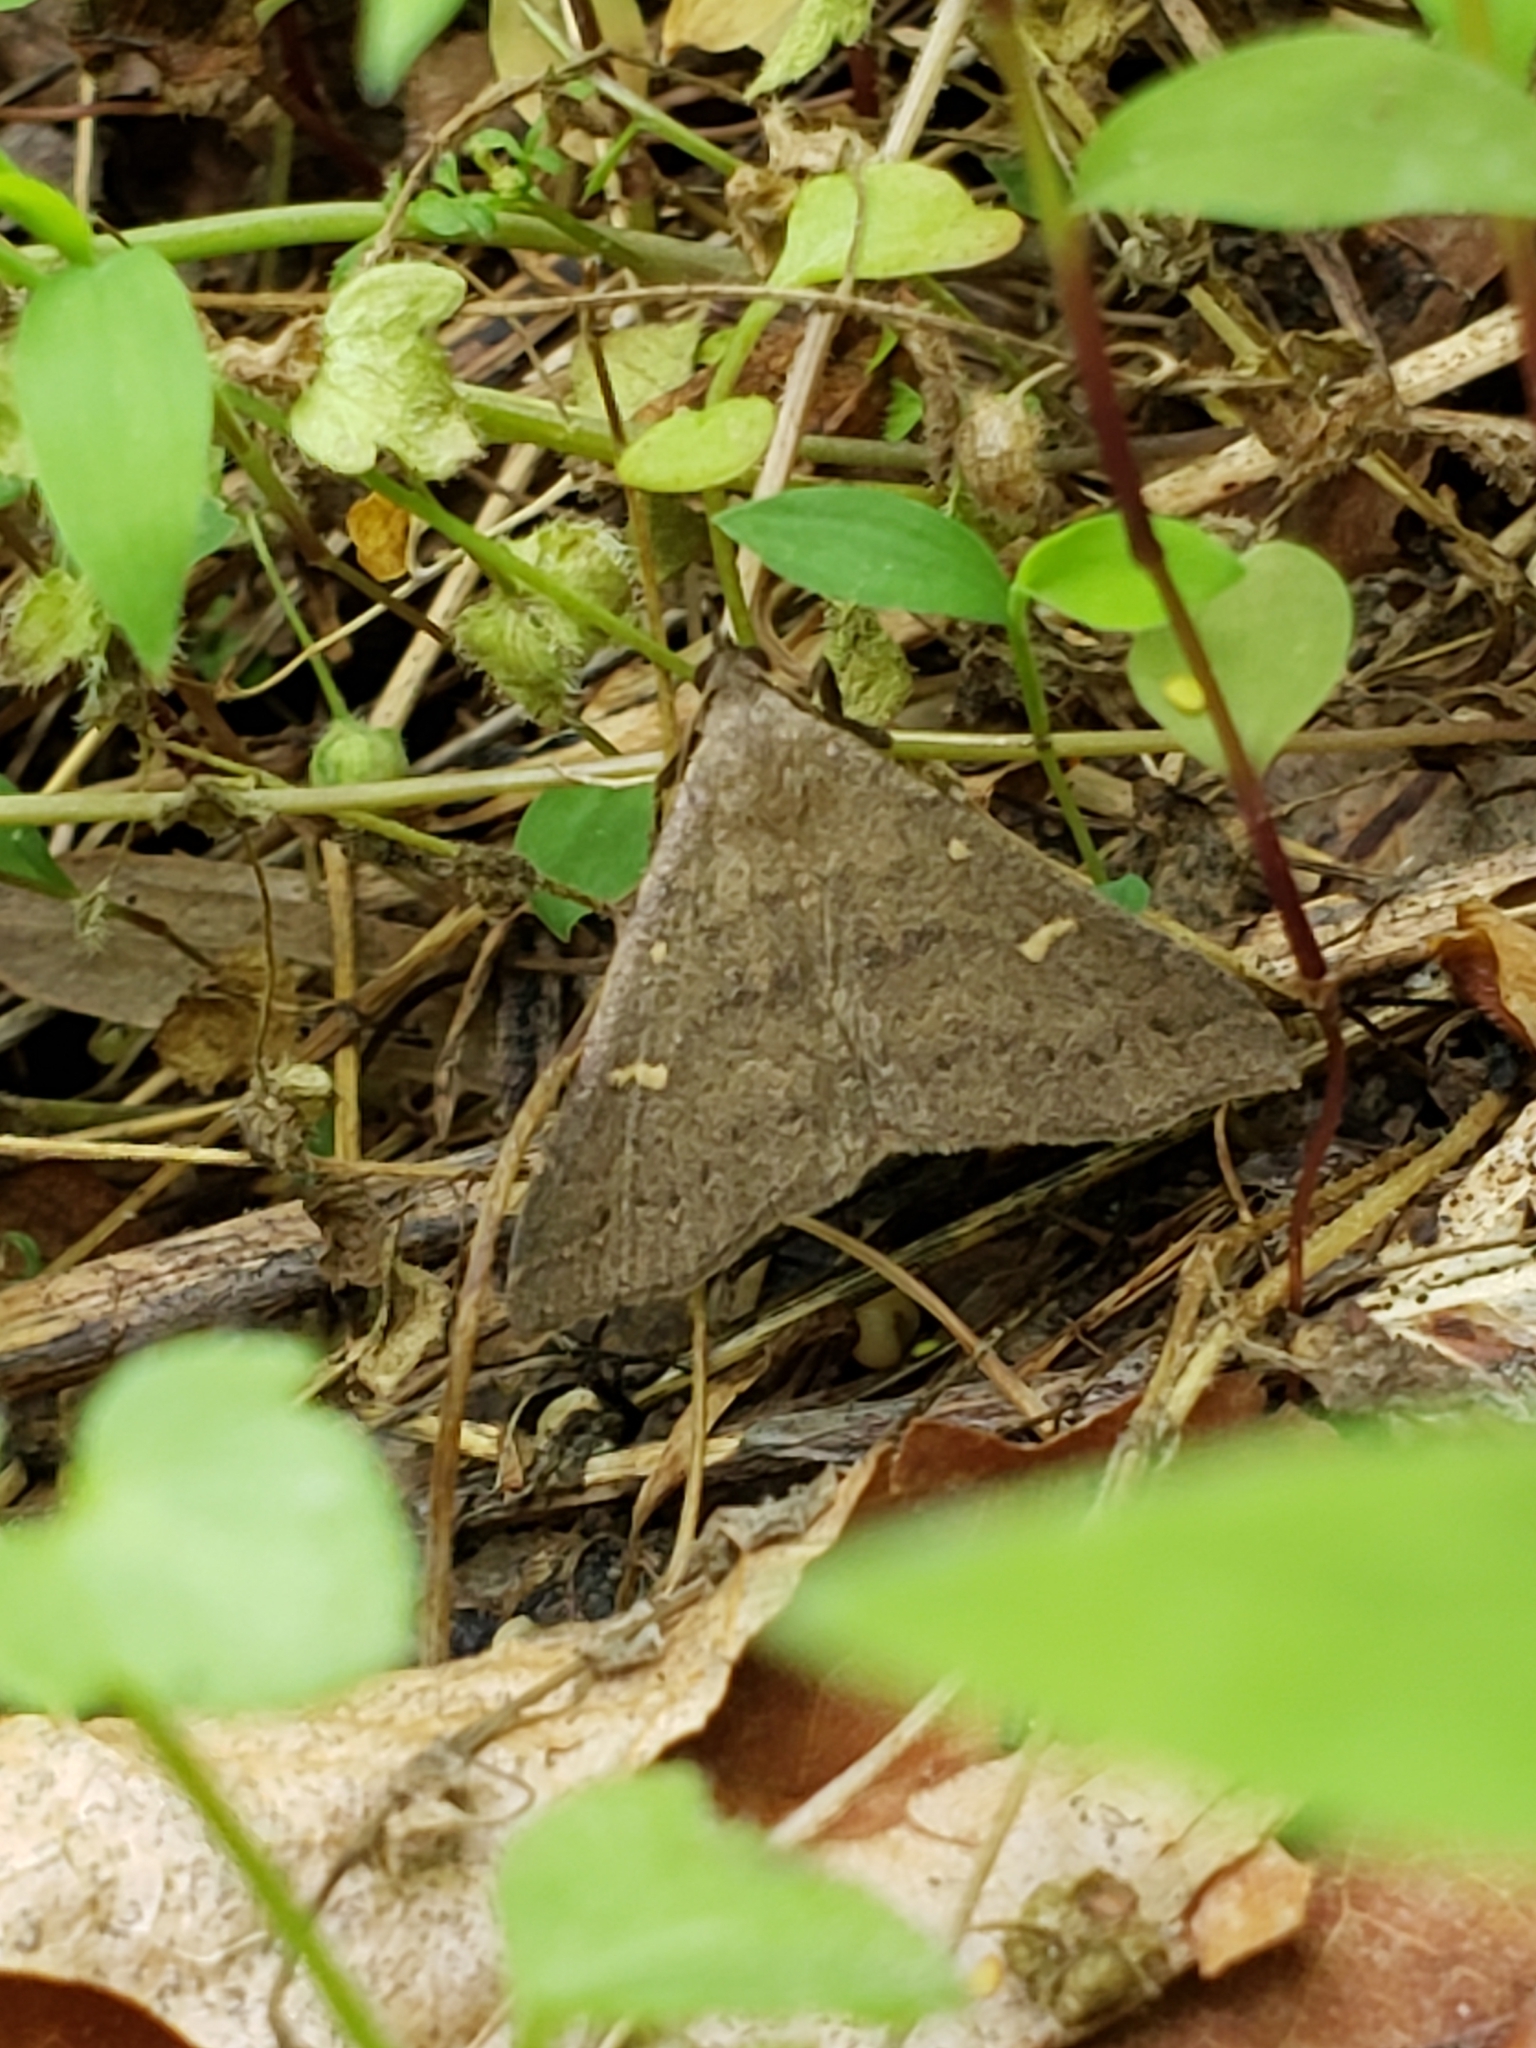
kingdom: Animalia
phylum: Arthropoda
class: Insecta
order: Lepidoptera
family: Erebidae
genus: Renia
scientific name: Renia adspergillus
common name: Speckled renia moth
